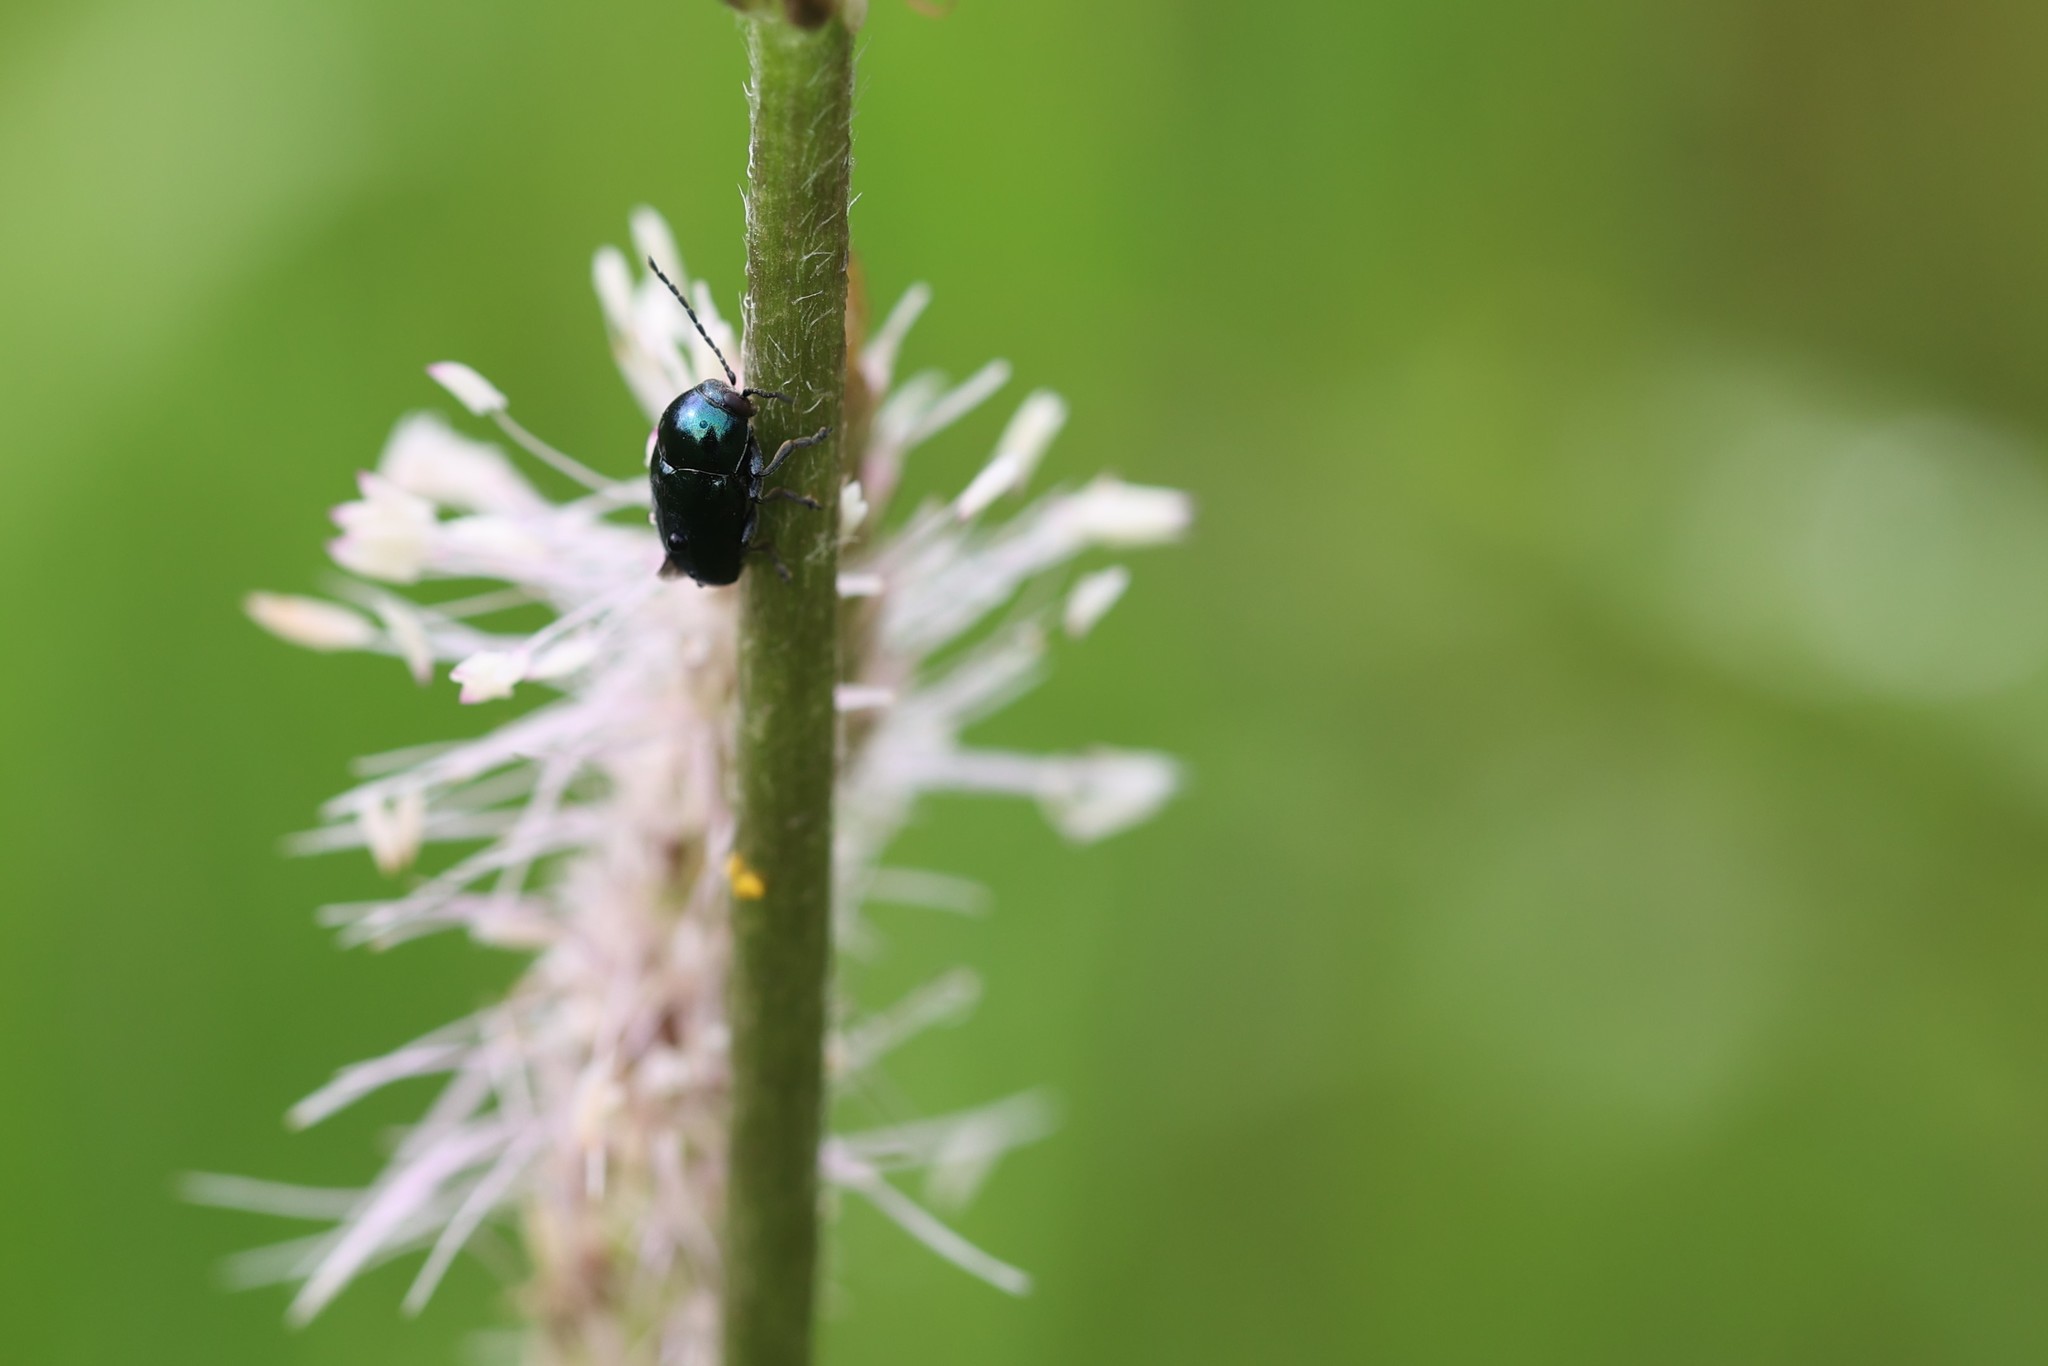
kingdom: Animalia
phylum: Arthropoda
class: Insecta
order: Coleoptera
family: Chrysomelidae
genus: Cryptocephalus
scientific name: Cryptocephalus violaceus
